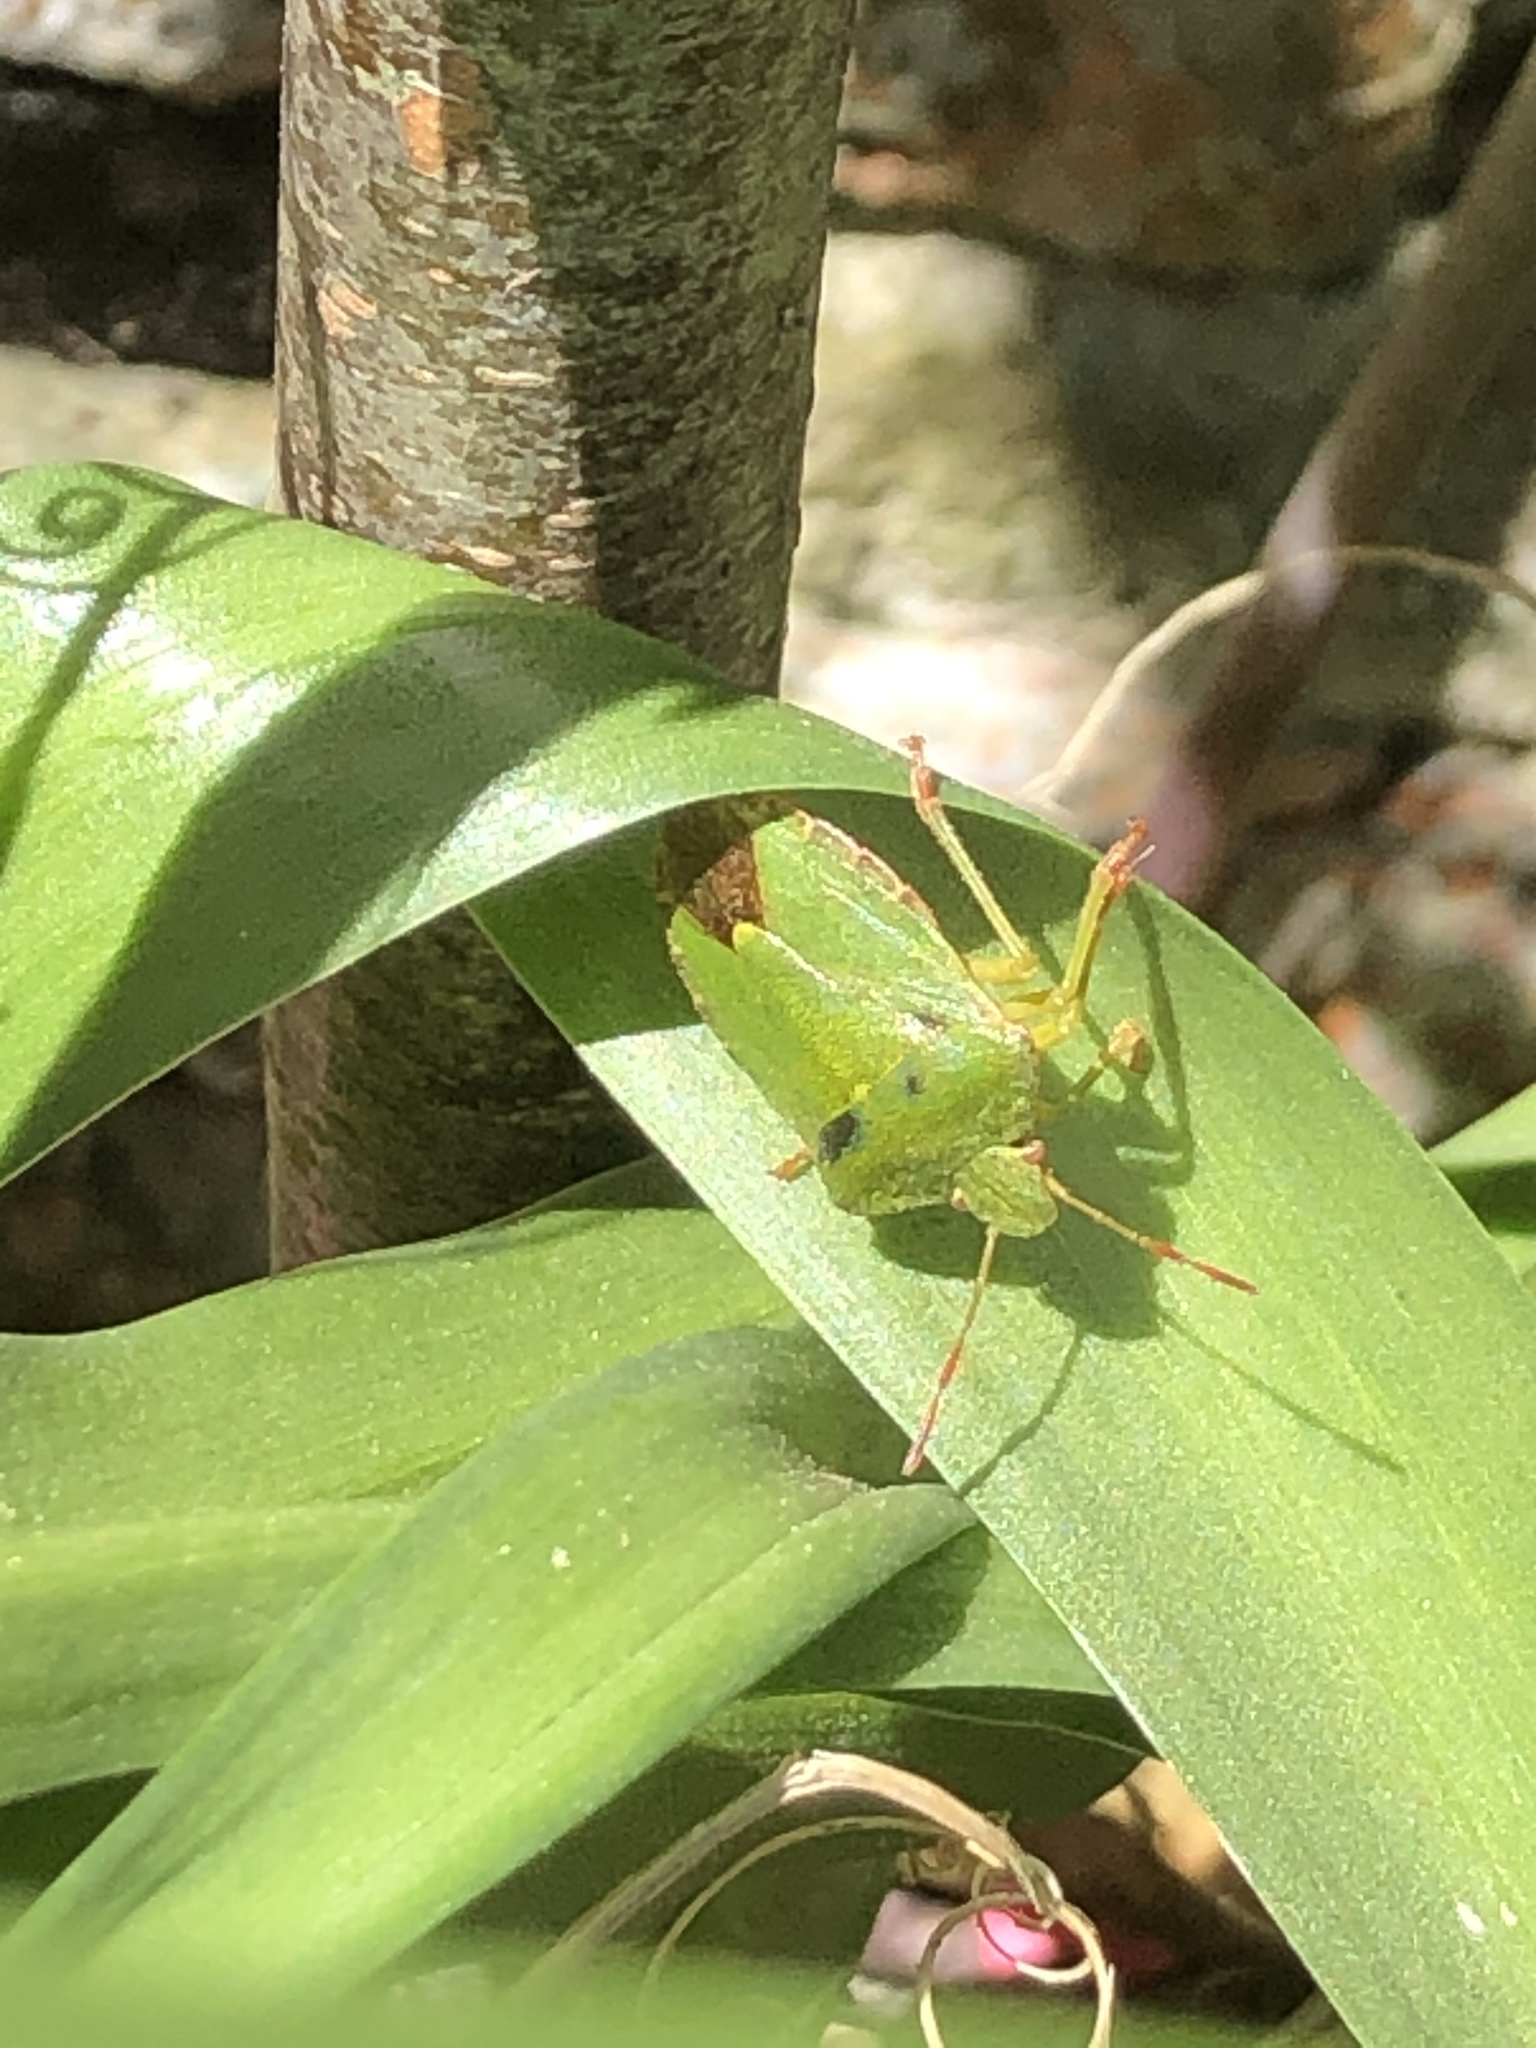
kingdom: Animalia
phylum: Arthropoda
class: Insecta
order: Hemiptera
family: Pentatomidae
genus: Palomena
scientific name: Palomena prasina
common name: Green shieldbug
